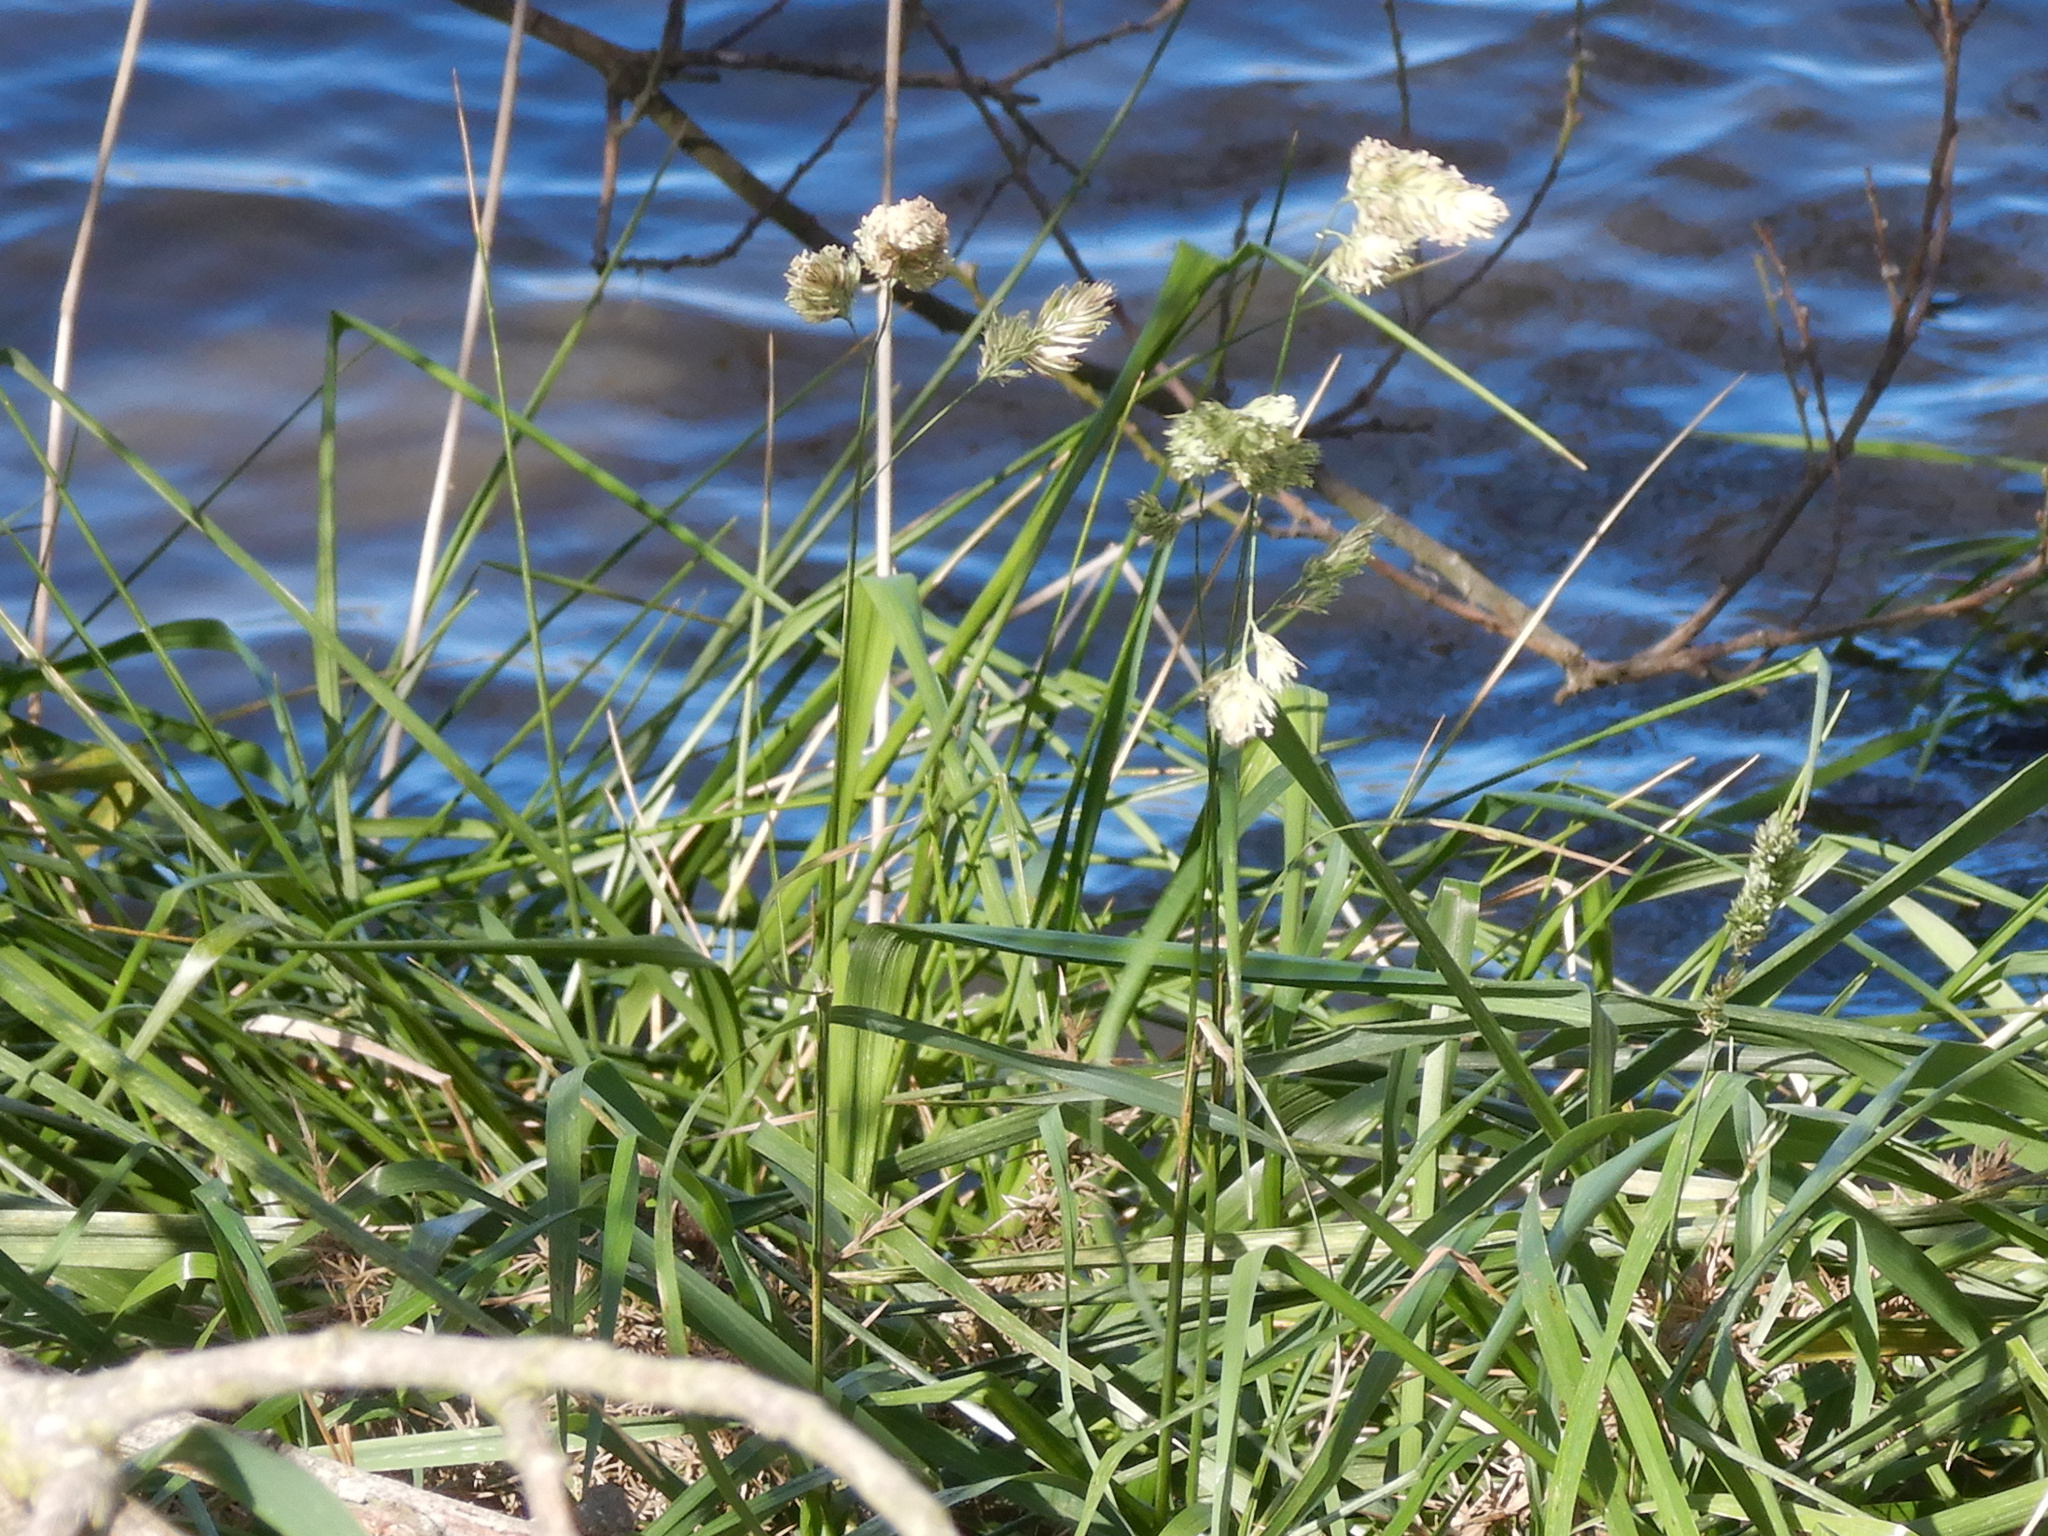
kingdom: Plantae
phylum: Tracheophyta
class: Liliopsida
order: Poales
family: Poaceae
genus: Dactylis
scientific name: Dactylis glomerata
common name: Orchardgrass
